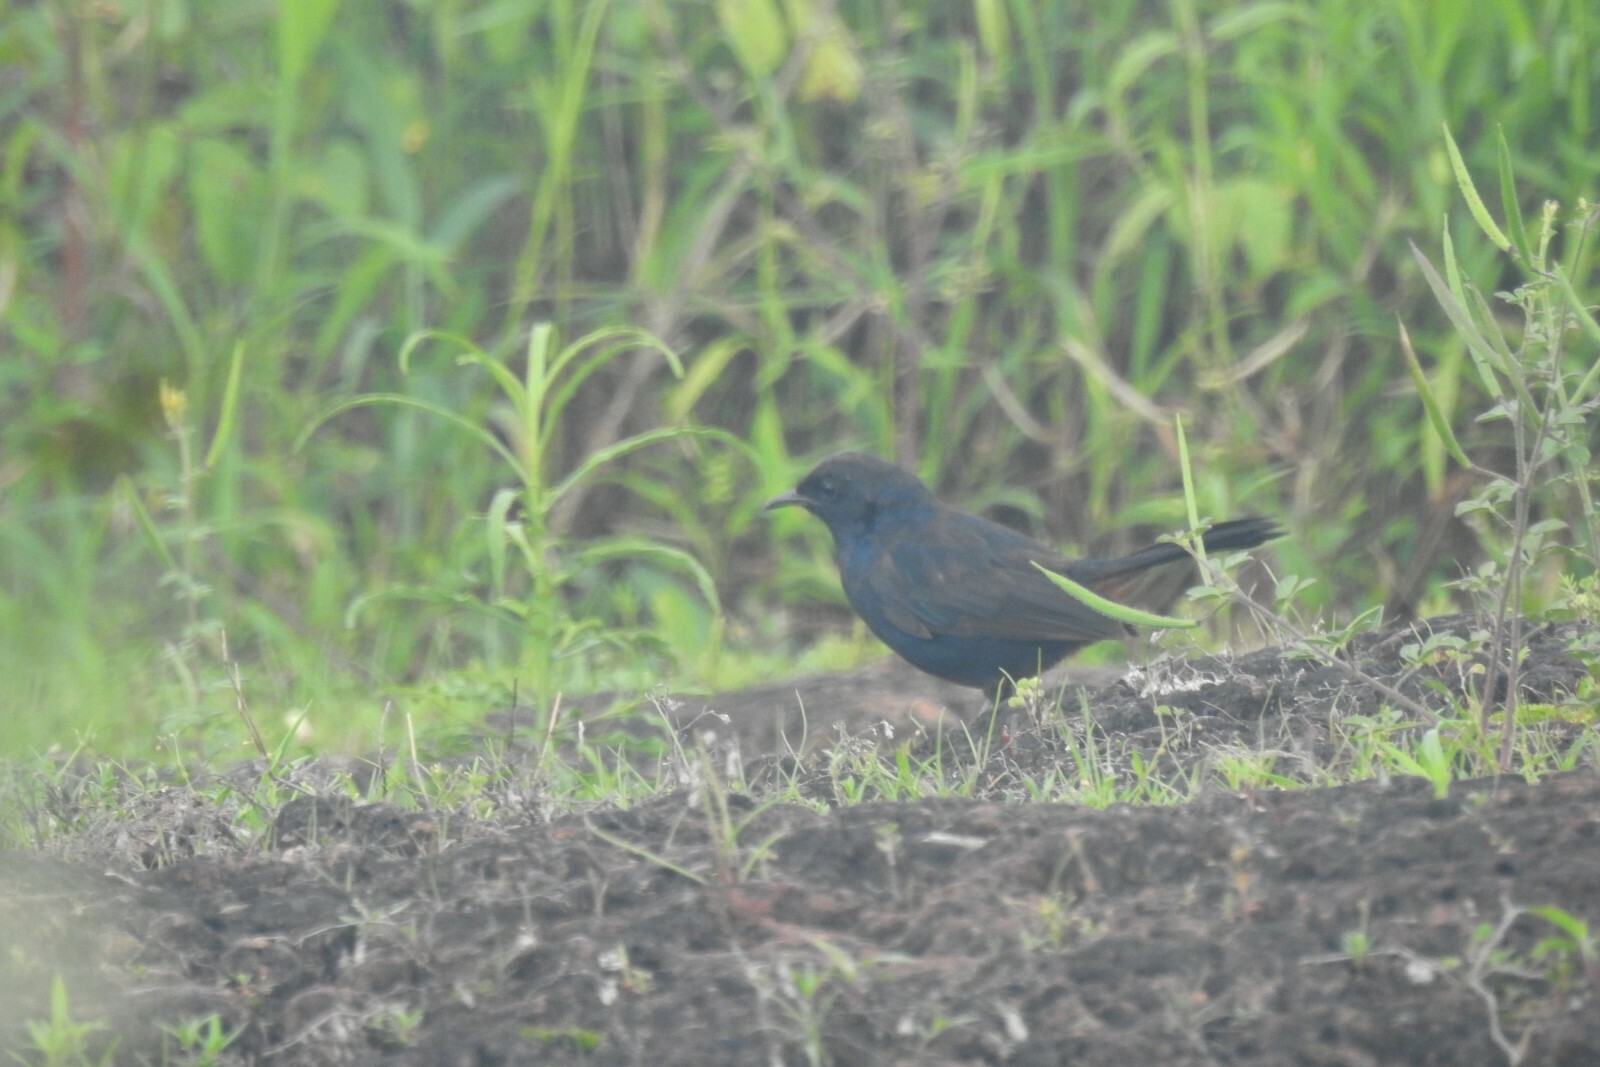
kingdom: Animalia
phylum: Chordata
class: Aves
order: Passeriformes
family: Muscicapidae
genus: Saxicoloides
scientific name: Saxicoloides fulicatus
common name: Indian robin
